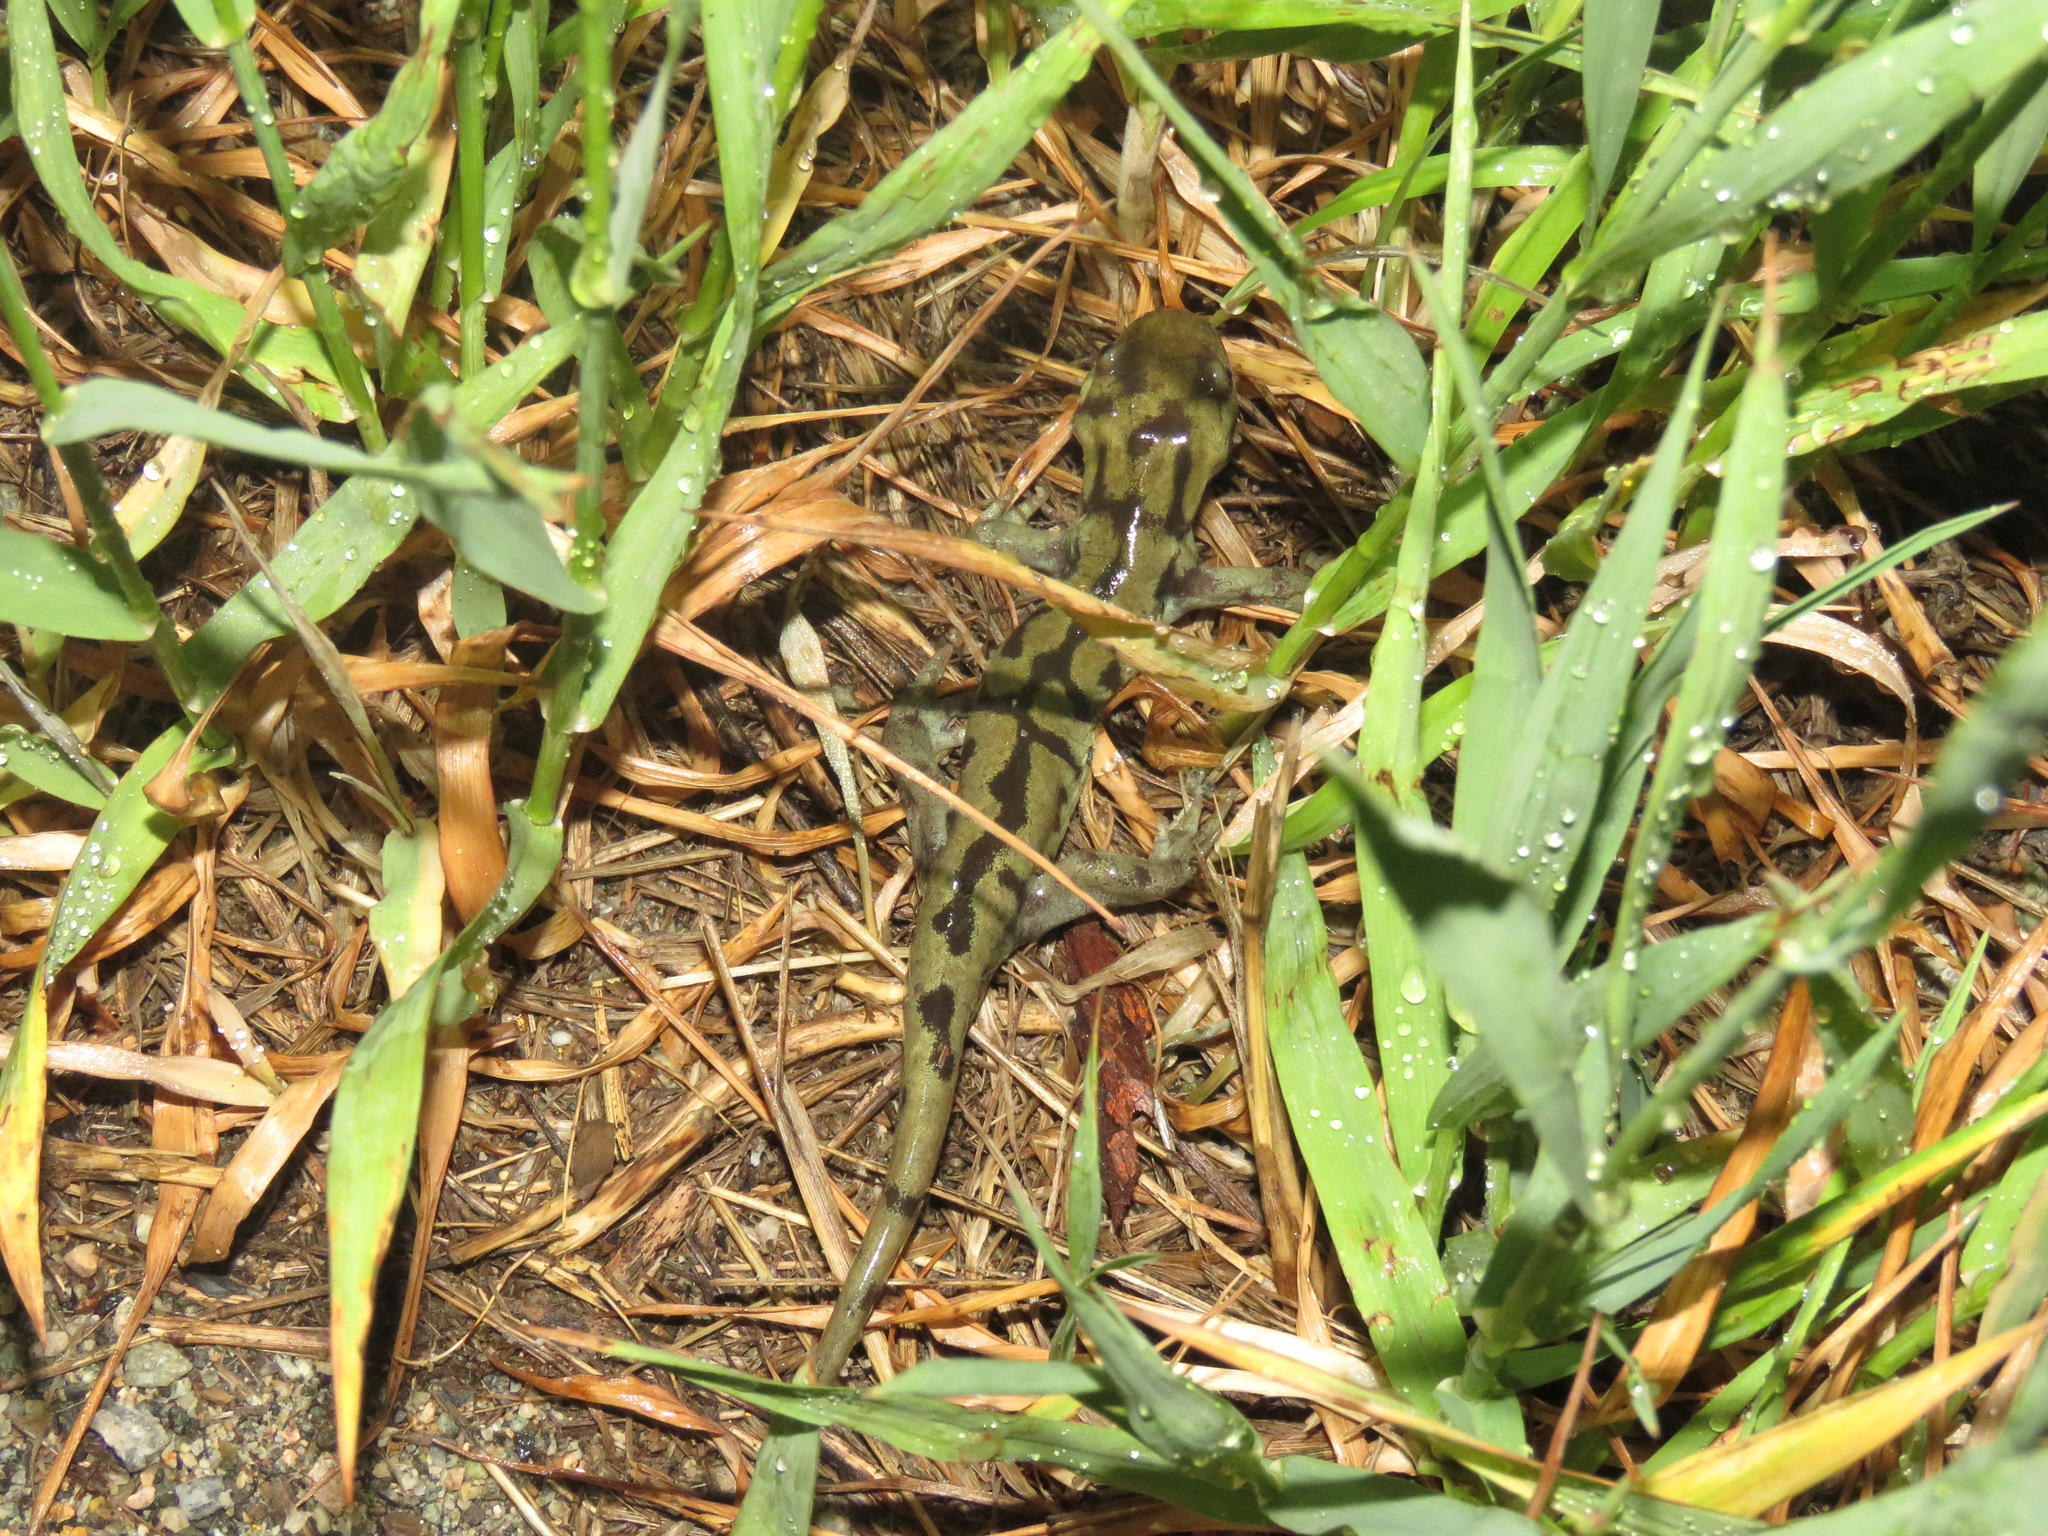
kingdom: Animalia
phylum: Chordata
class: Amphibia
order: Caudata
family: Ambystomatidae
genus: Ambystoma
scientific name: Ambystoma mavortium
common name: Western tiger salamander
